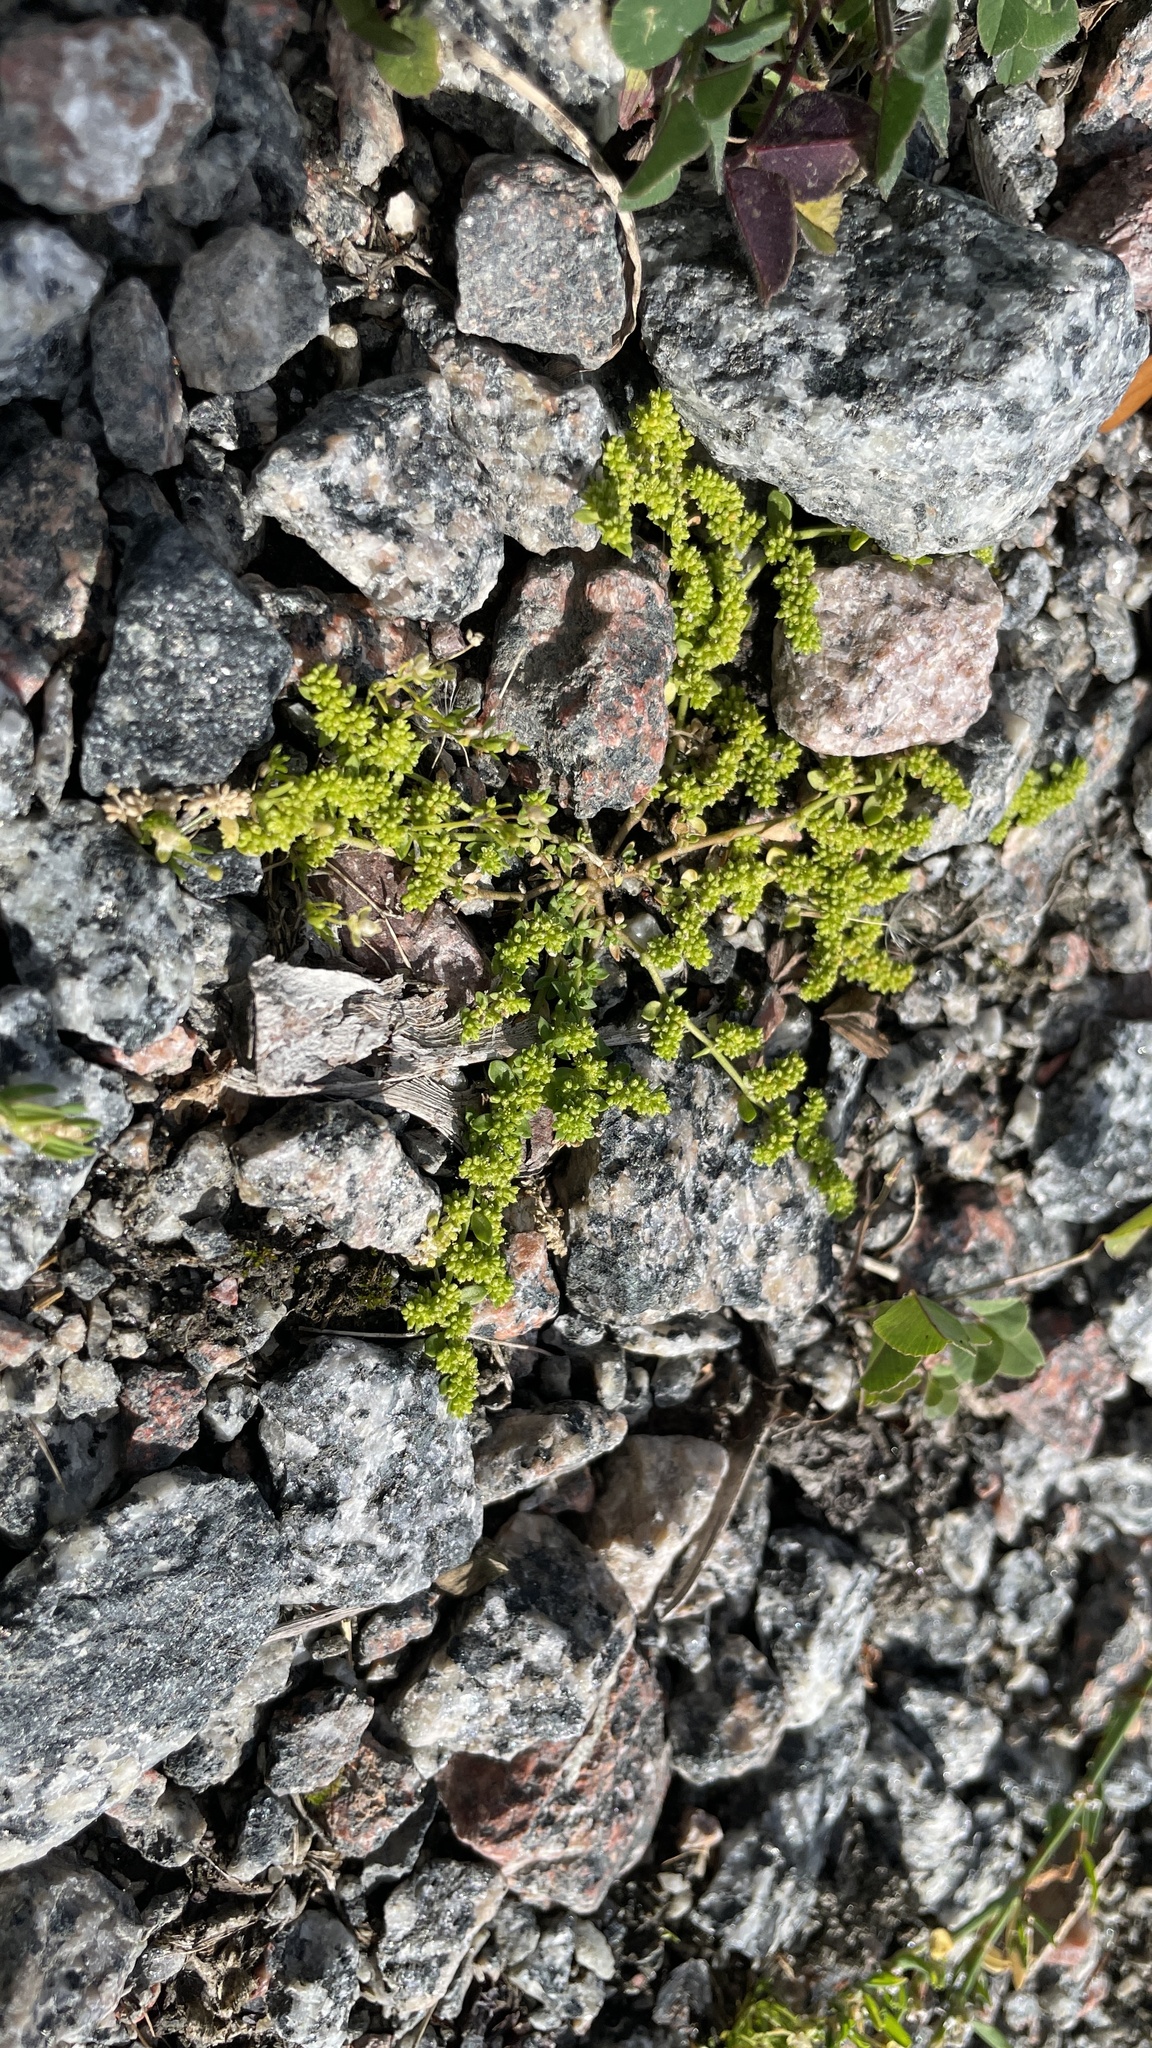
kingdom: Plantae
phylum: Tracheophyta
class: Magnoliopsida
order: Caryophyllales
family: Caryophyllaceae
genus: Herniaria
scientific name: Herniaria glabra
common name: Smooth rupturewort
